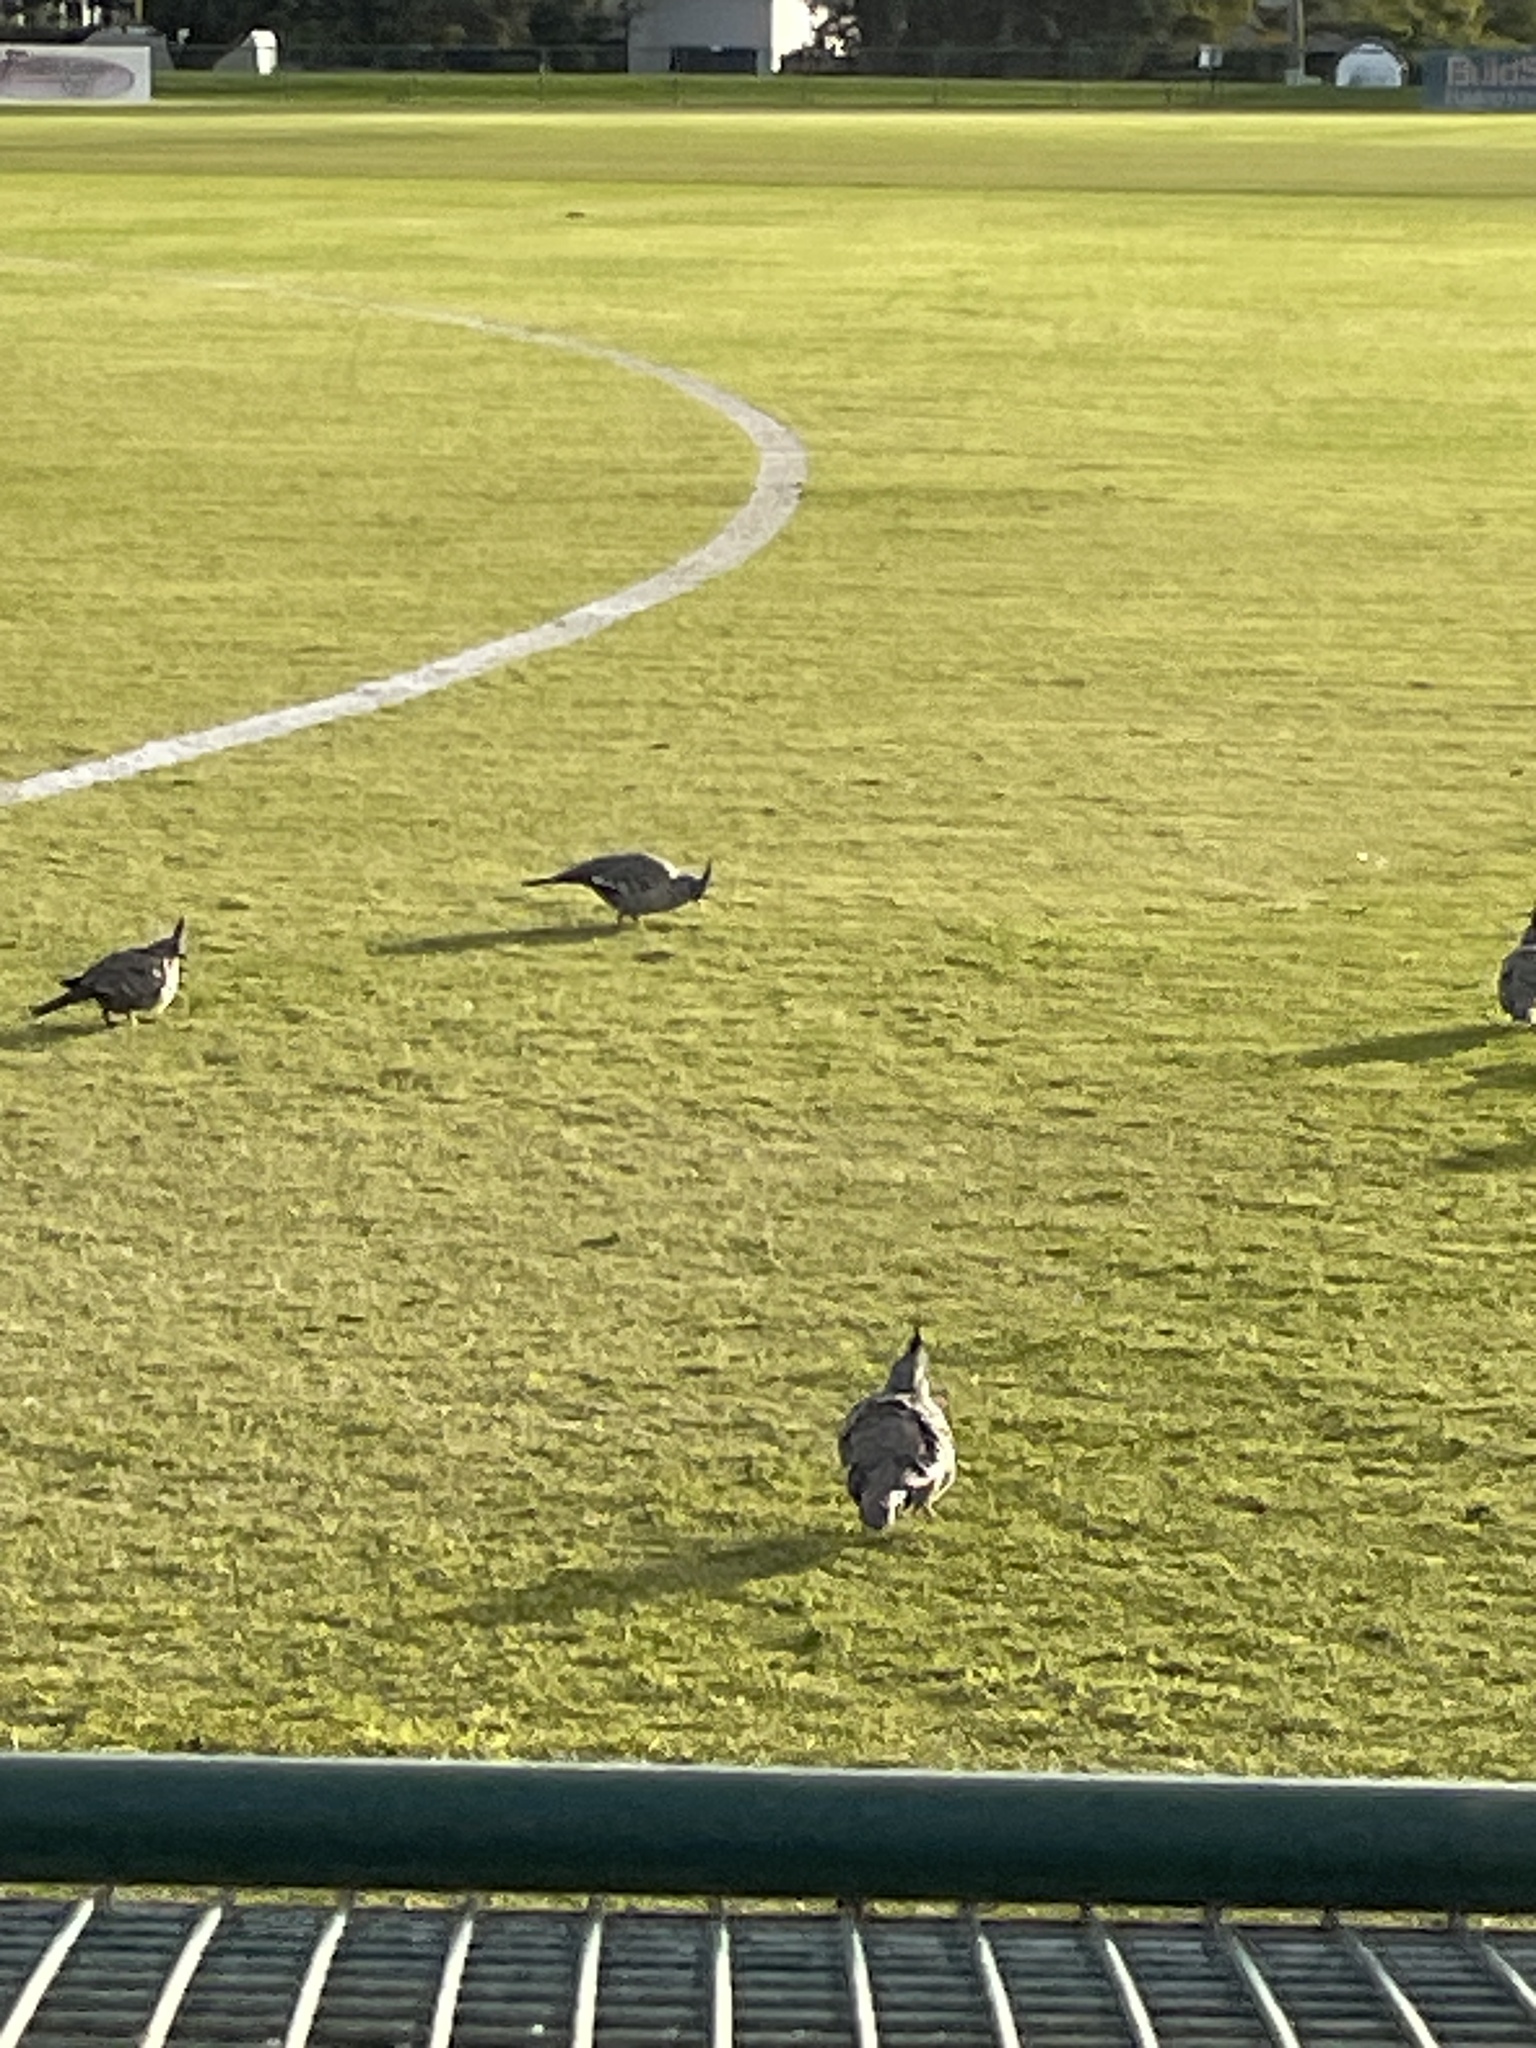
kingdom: Animalia
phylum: Chordata
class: Aves
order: Columbiformes
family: Columbidae
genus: Ocyphaps
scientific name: Ocyphaps lophotes
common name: Crested pigeon
